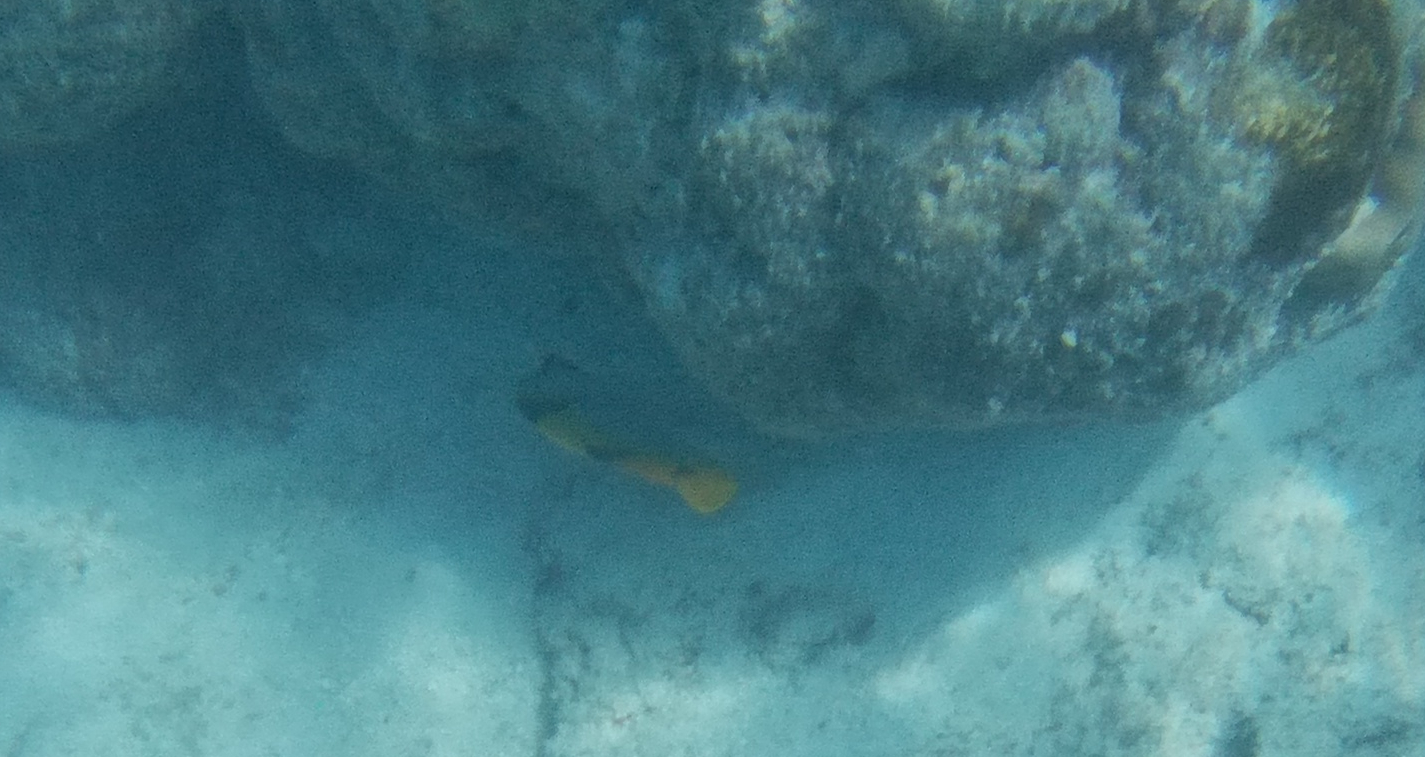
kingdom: Animalia
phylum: Chordata
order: Perciformes
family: Chaetodontidae
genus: Chaetodon
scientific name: Chaetodon falcula
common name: Blackwedged butterflyfish
